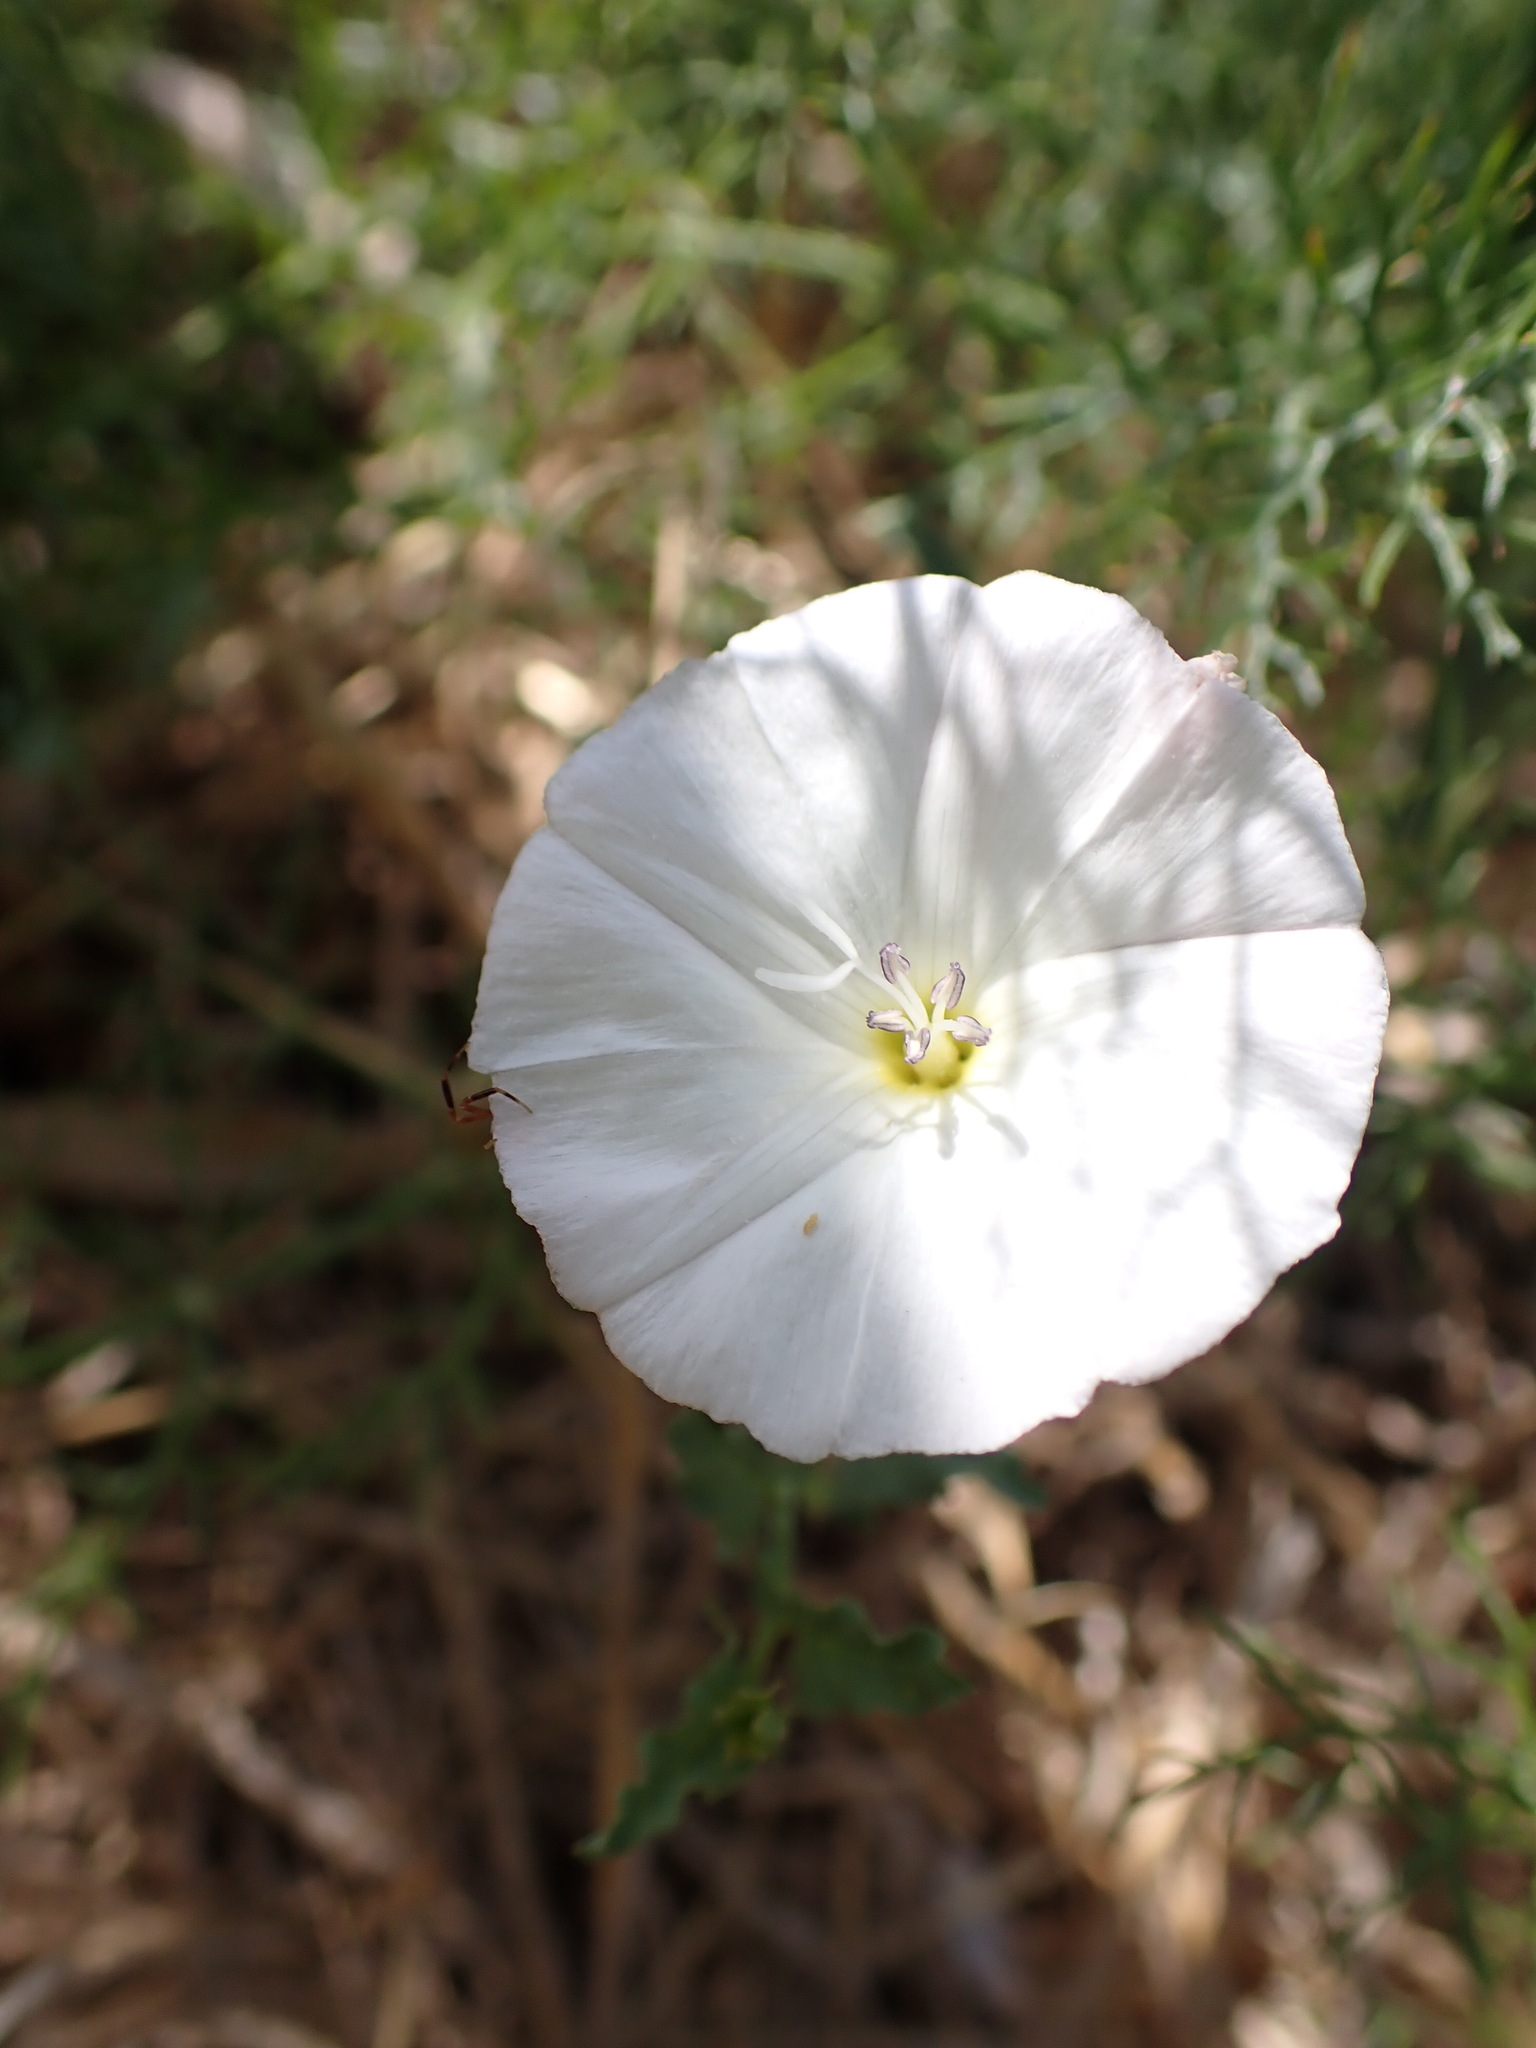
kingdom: Plantae
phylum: Tracheophyta
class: Magnoliopsida
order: Solanales
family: Convolvulaceae
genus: Convolvulus
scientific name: Convolvulus arvensis
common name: Field bindweed
